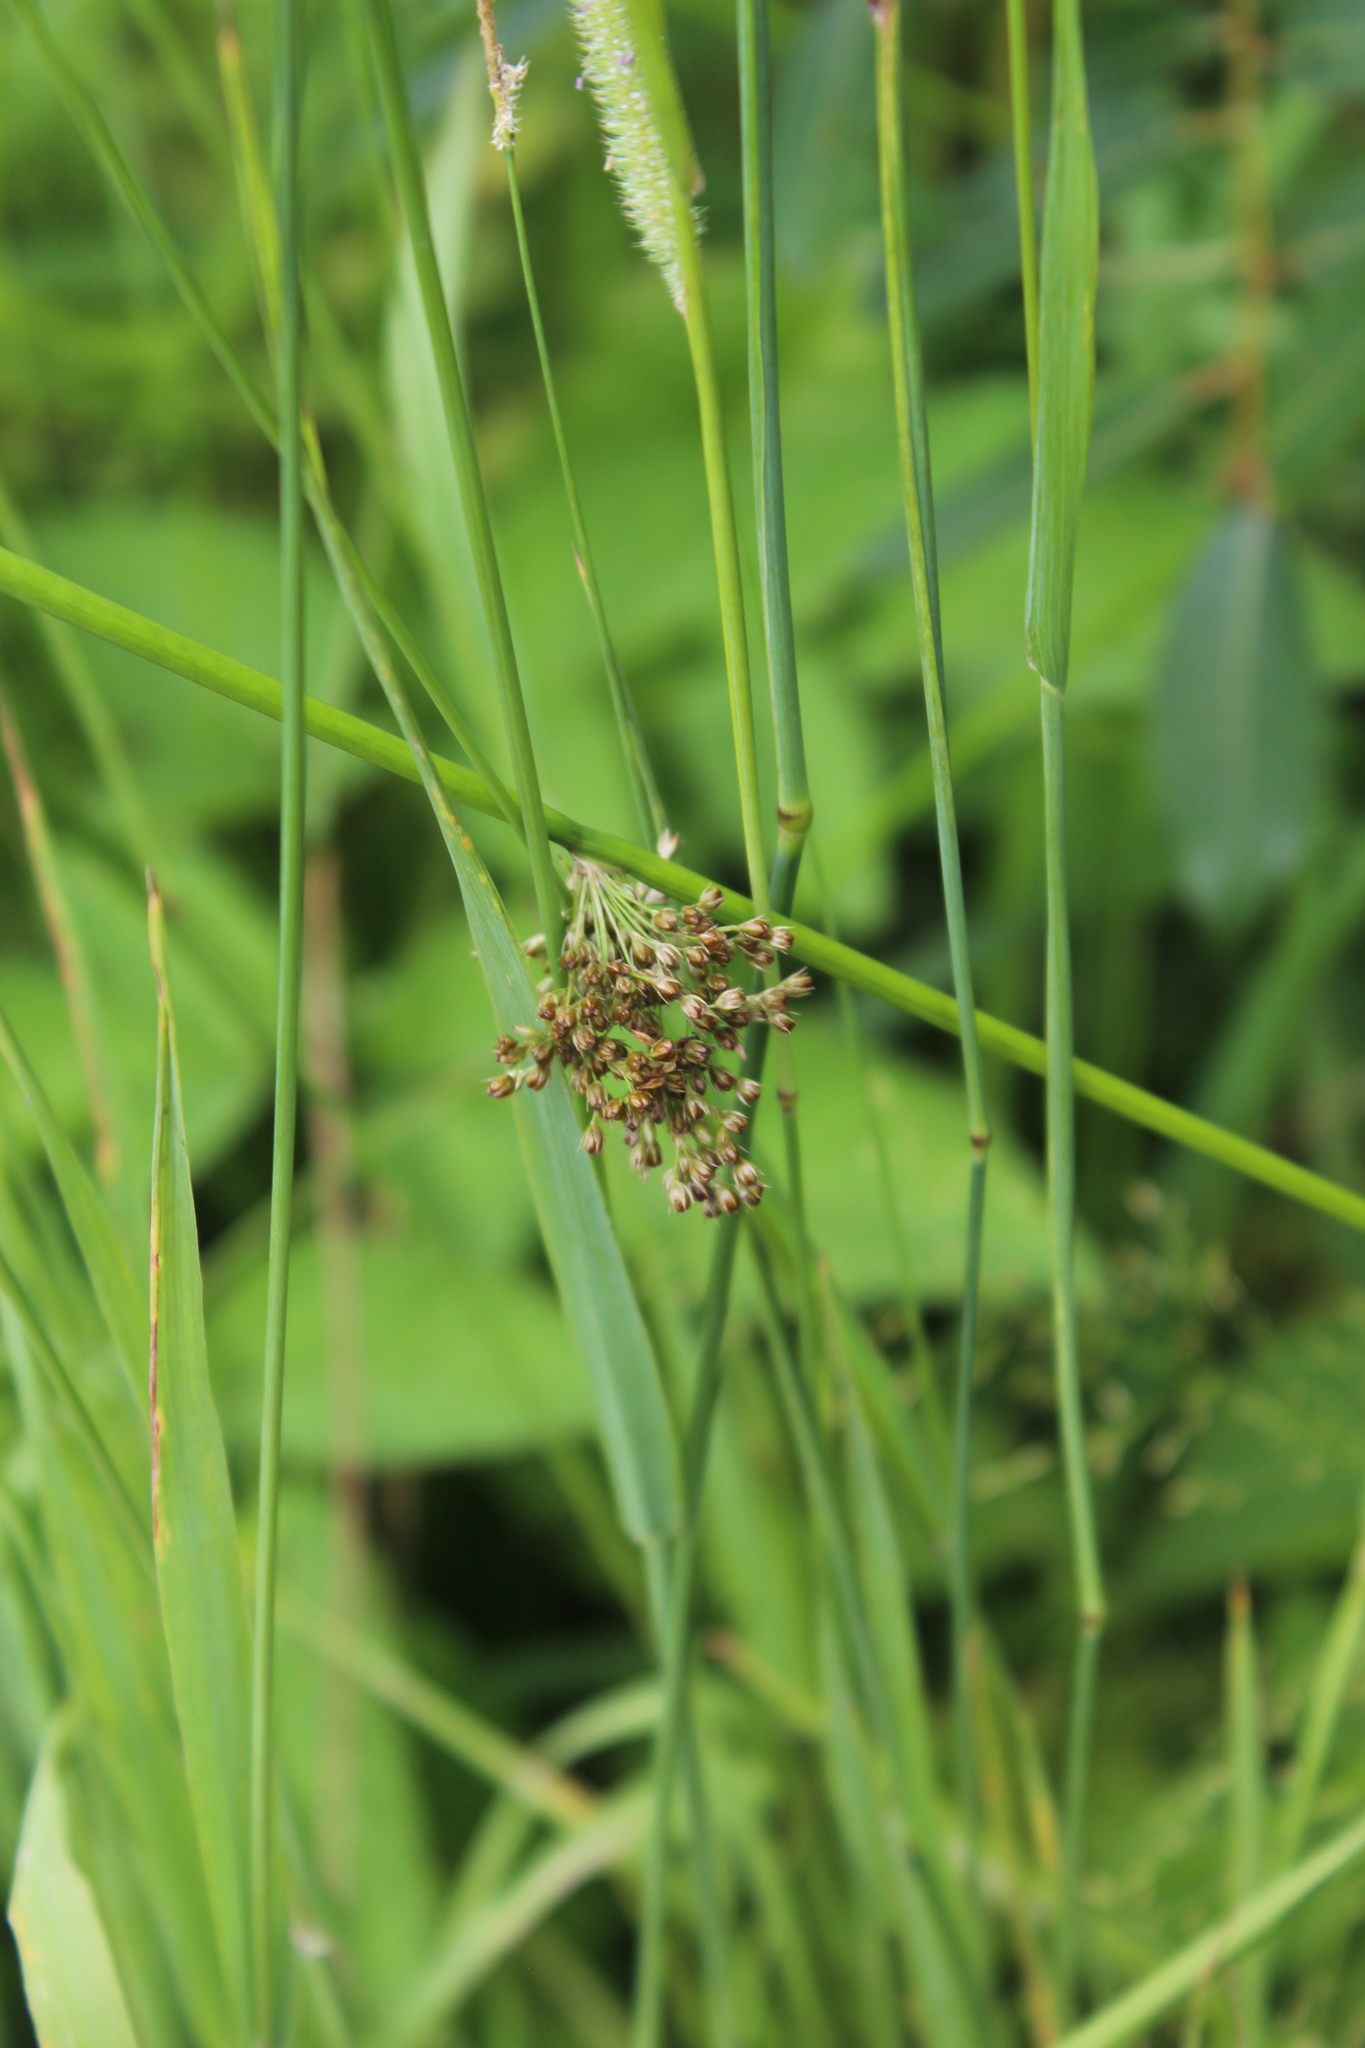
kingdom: Plantae
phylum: Tracheophyta
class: Liliopsida
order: Poales
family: Juncaceae
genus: Juncus
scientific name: Juncus effusus
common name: Soft rush
